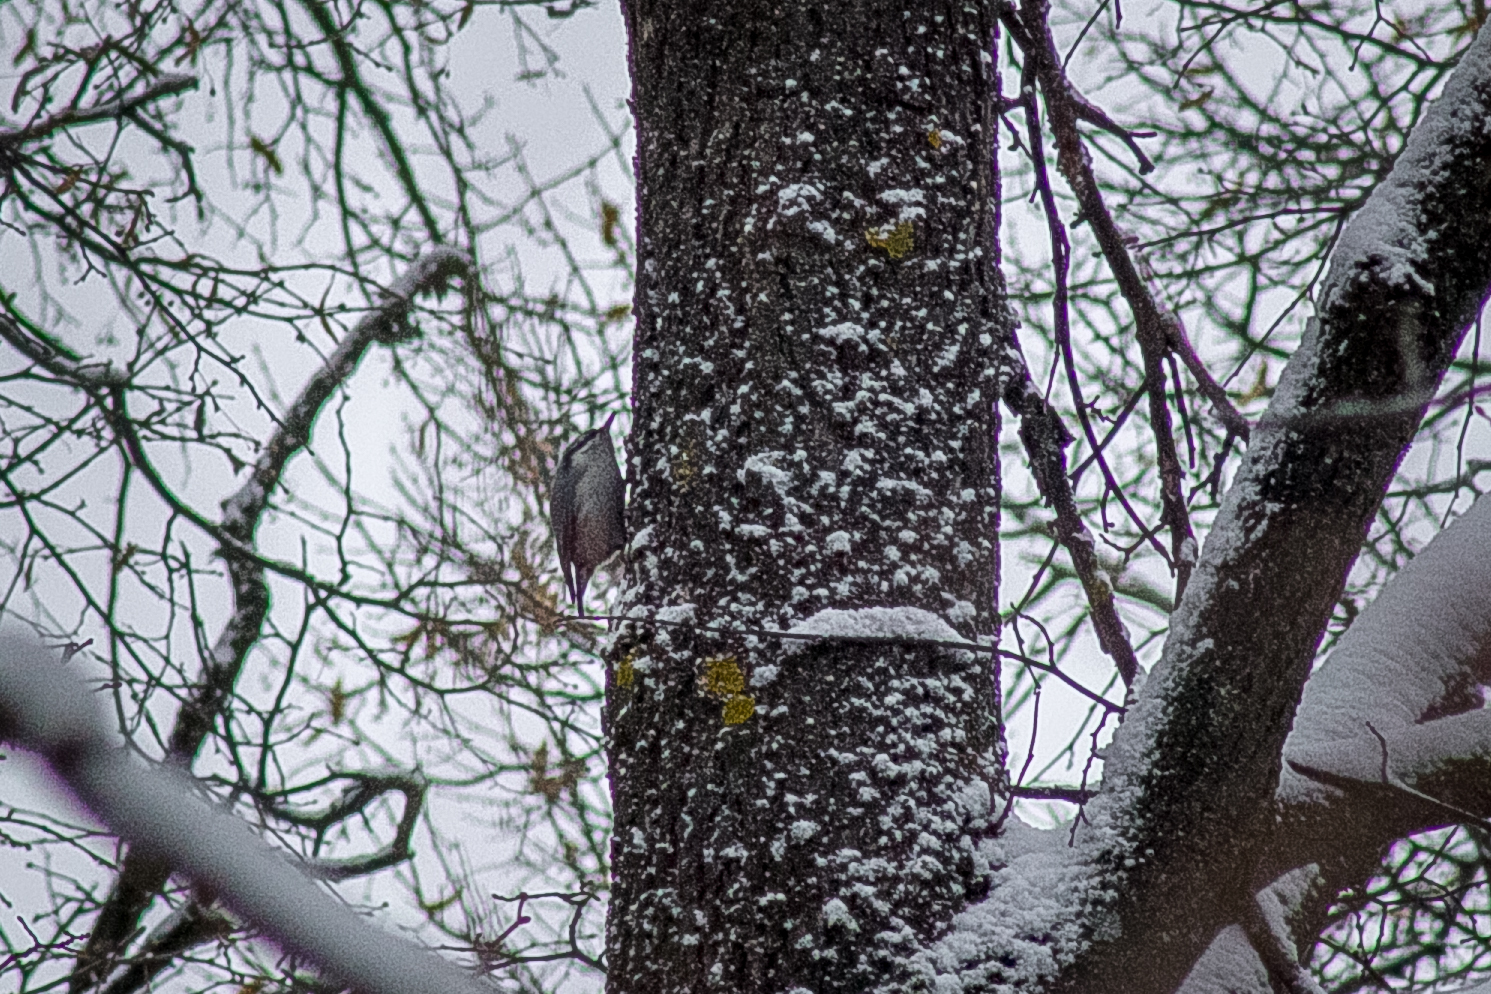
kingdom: Animalia
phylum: Chordata
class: Aves
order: Passeriformes
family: Sittidae
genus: Sitta
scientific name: Sitta europaea
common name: Eurasian nuthatch
